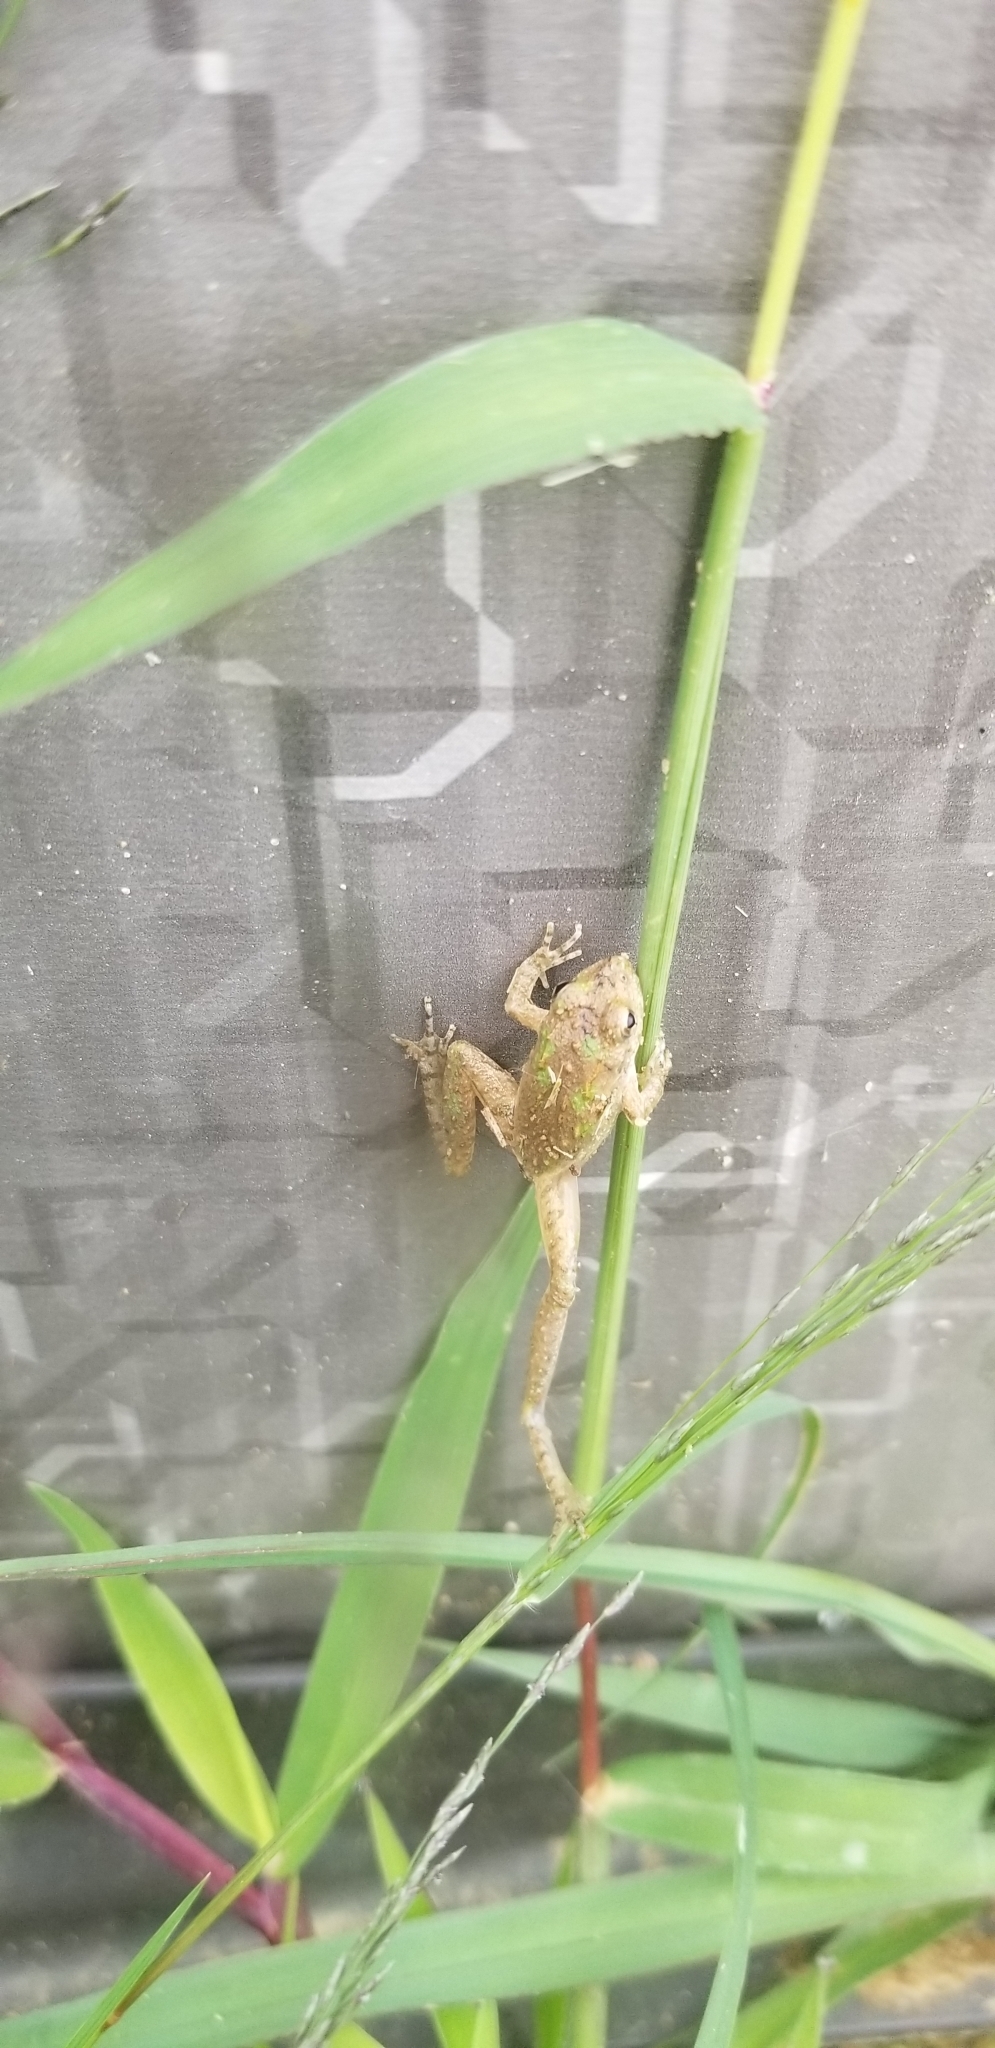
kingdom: Animalia
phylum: Chordata
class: Amphibia
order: Anura
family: Hylidae
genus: Acris
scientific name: Acris blanchardi
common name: Blanchard's cricket frog
